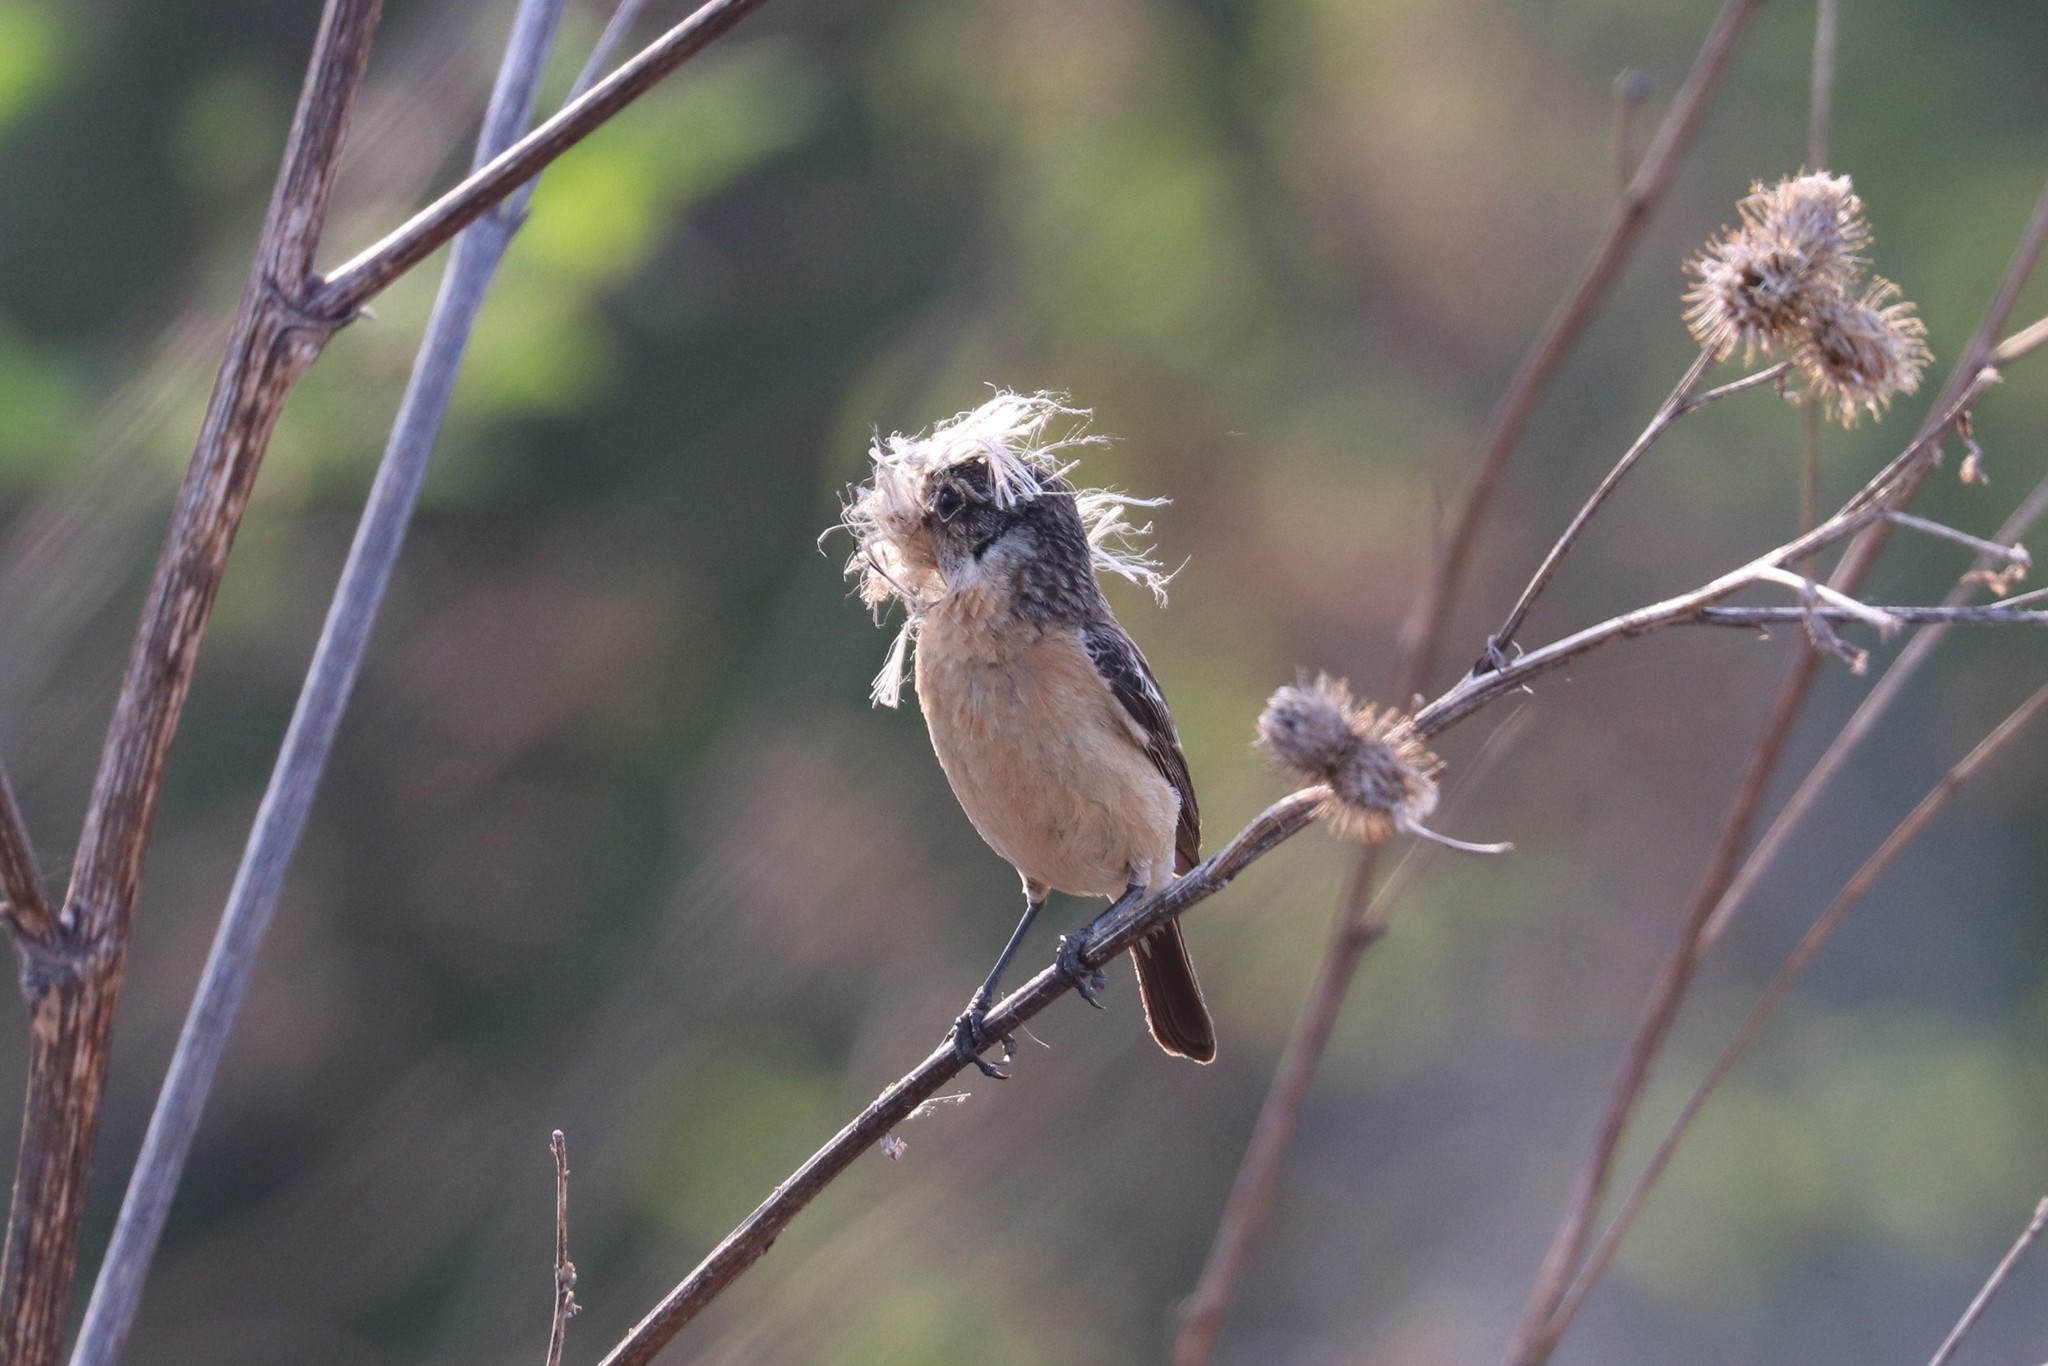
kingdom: Animalia
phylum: Chordata
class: Aves
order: Passeriformes
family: Muscicapidae
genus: Saxicola
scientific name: Saxicola maurus
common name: Siberian stonechat
